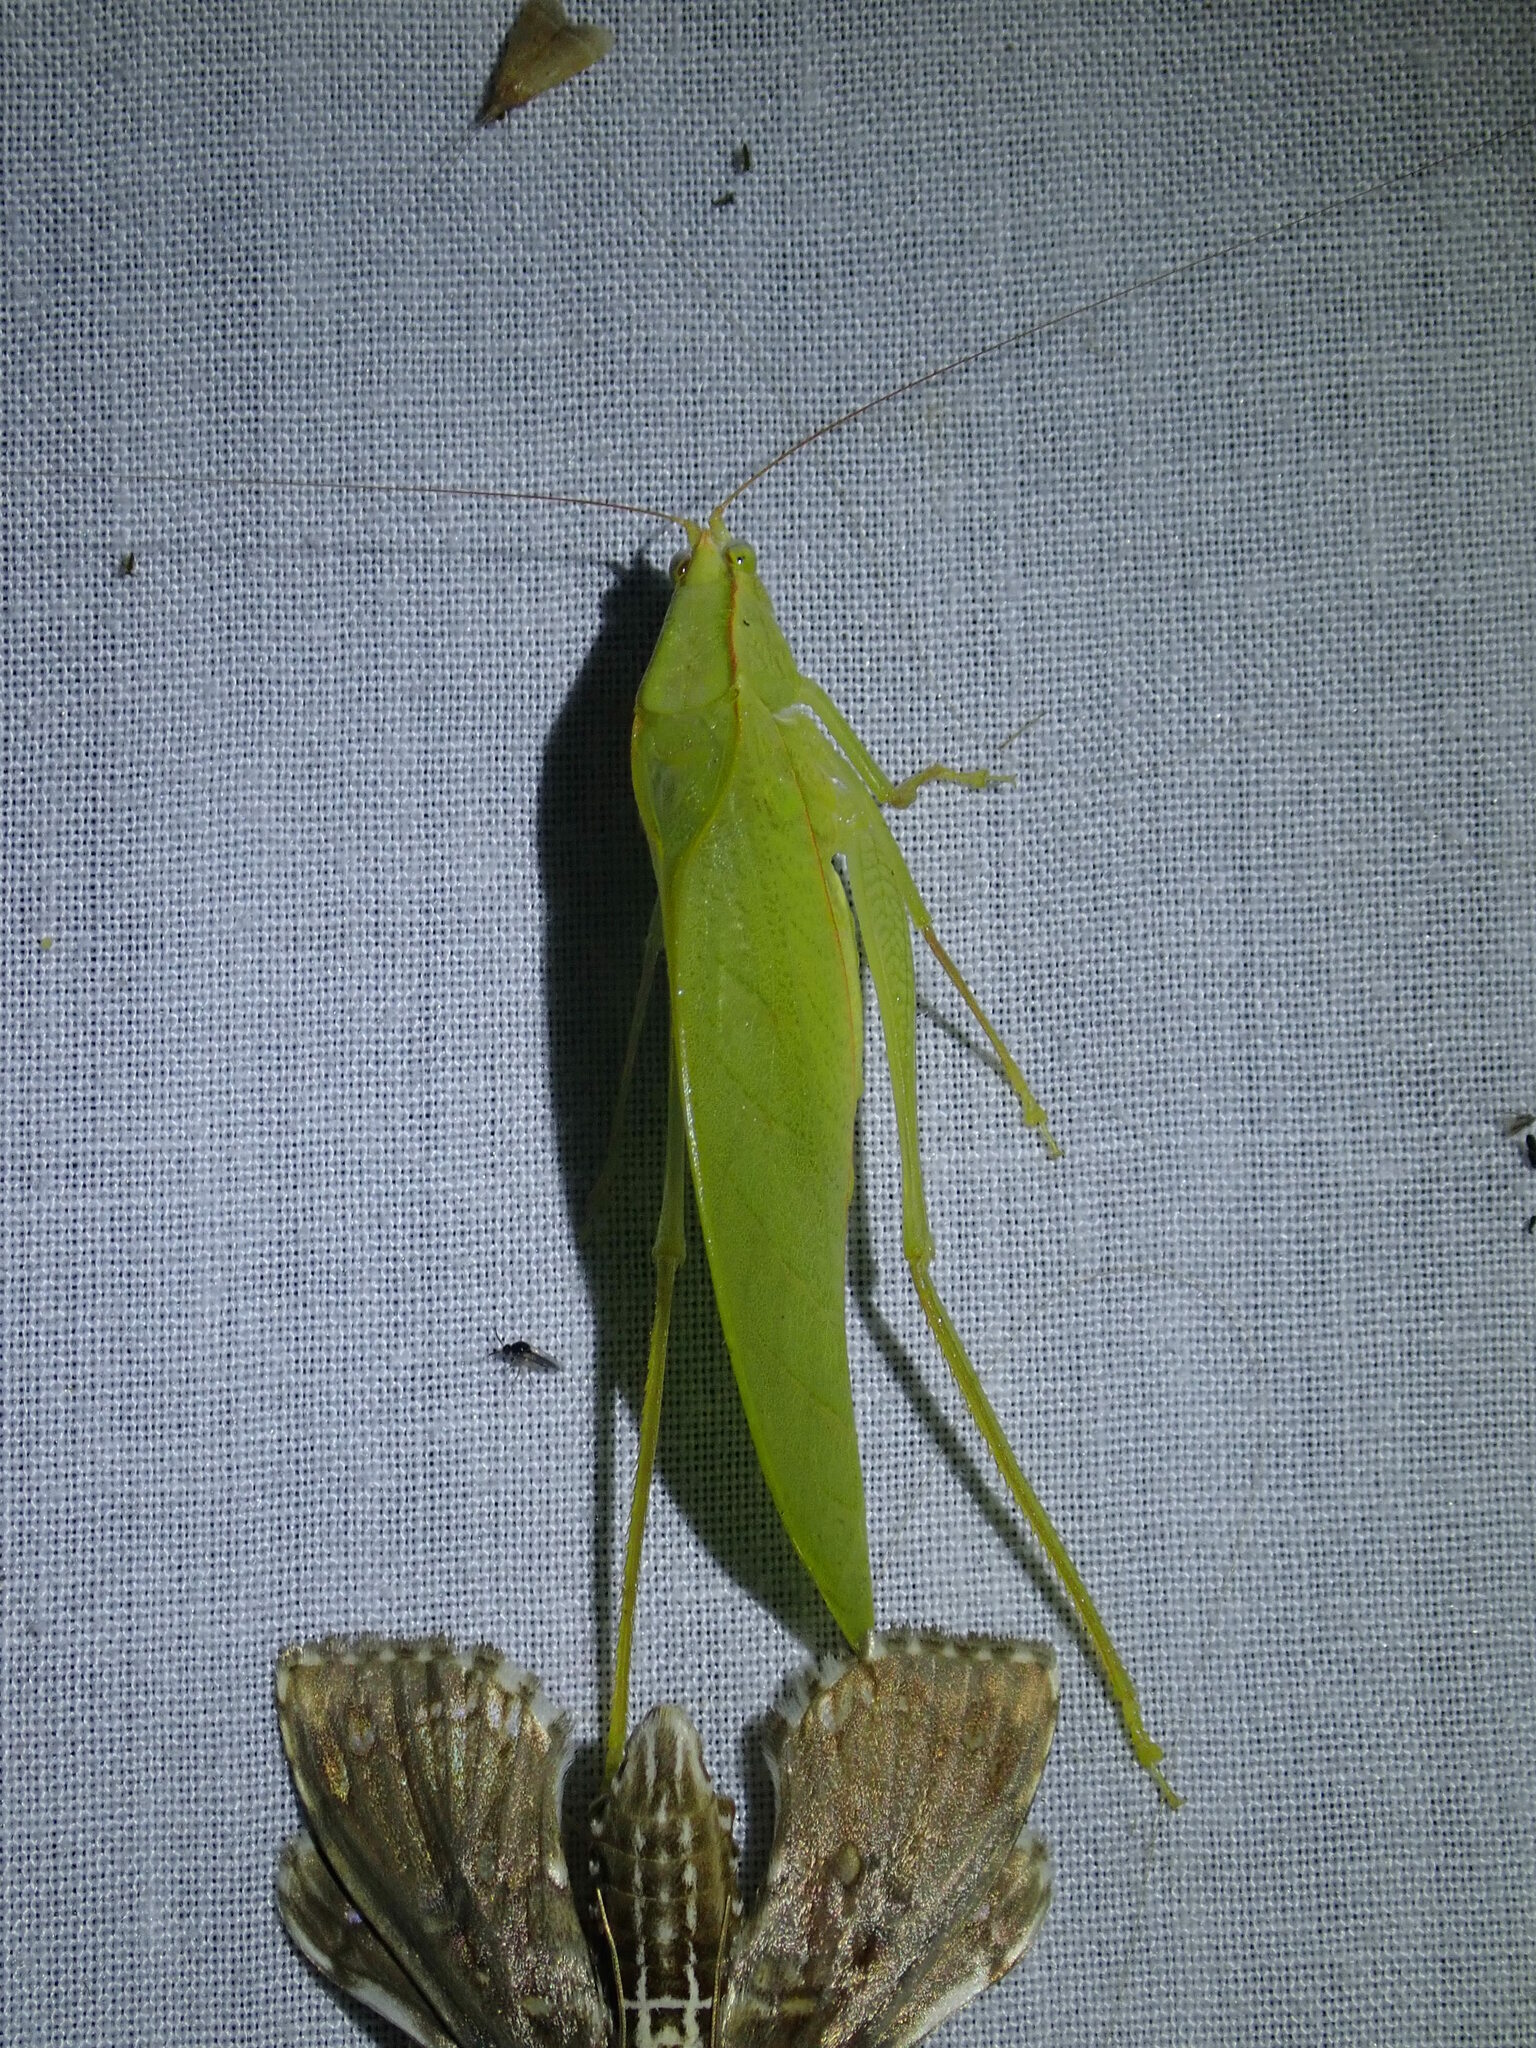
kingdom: Animalia
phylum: Arthropoda
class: Insecta
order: Orthoptera
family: Tettigoniidae
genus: Arota
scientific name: Arota panamae
